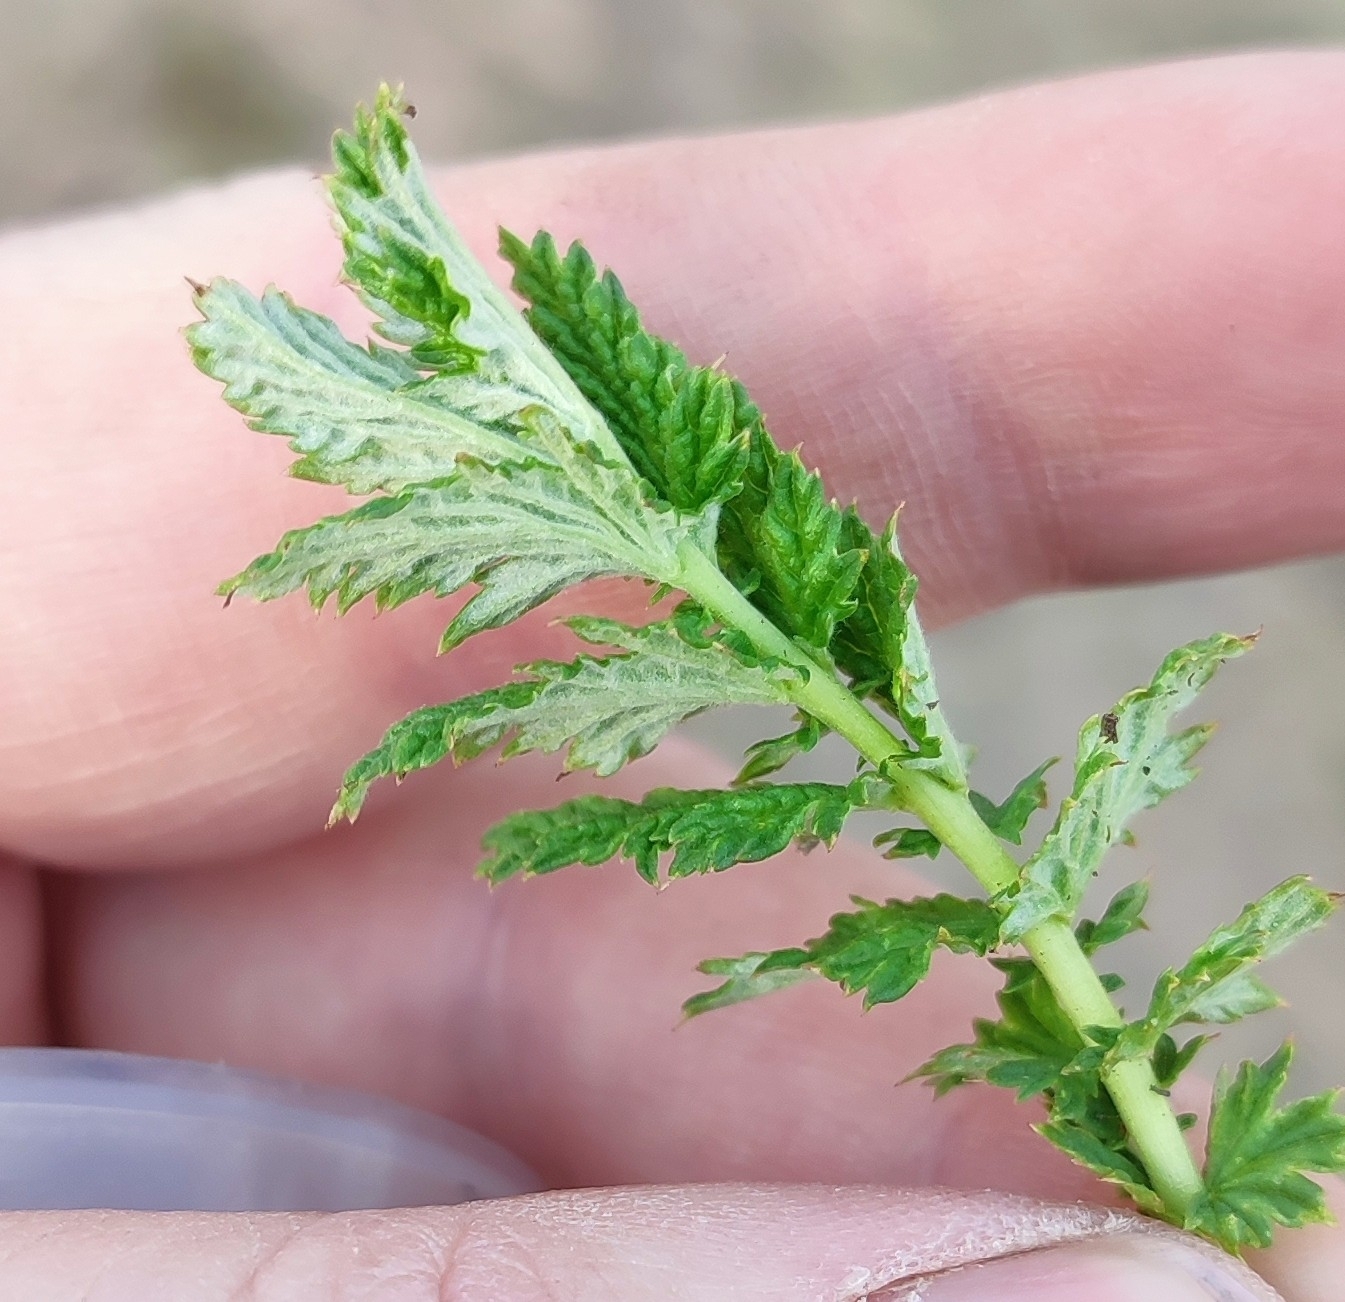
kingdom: Plantae
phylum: Tracheophyta
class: Magnoliopsida
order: Rosales
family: Rosaceae
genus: Filipendula
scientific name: Filipendula ulmaria
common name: Meadowsweet
